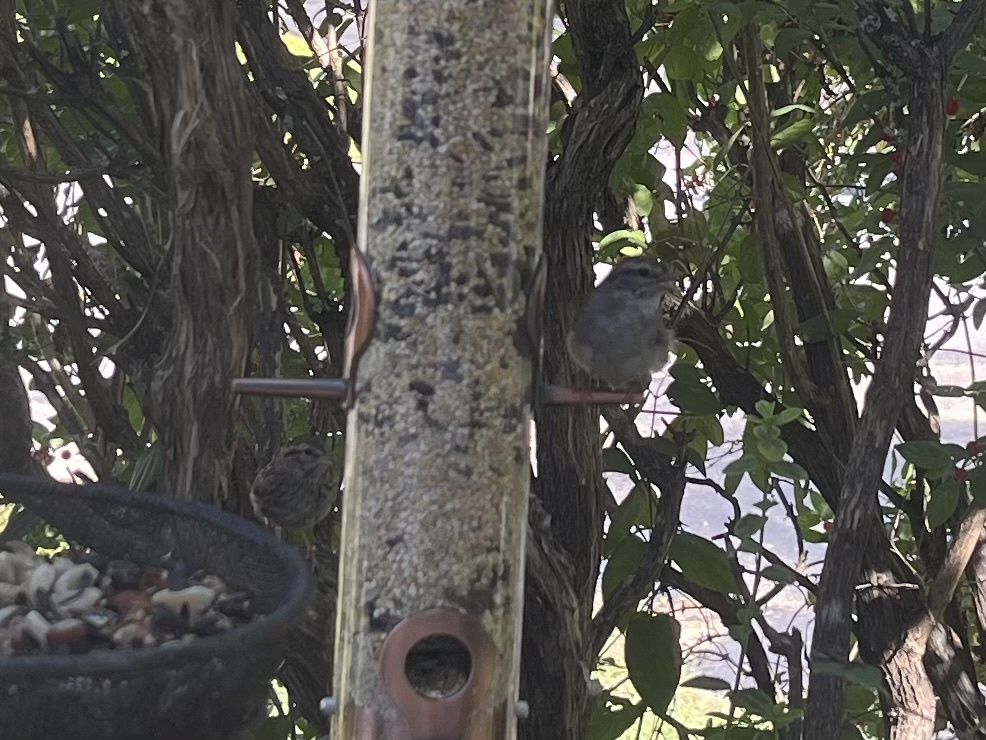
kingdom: Animalia
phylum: Chordata
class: Aves
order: Passeriformes
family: Passerellidae
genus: Spizella
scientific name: Spizella passerina
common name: Chipping sparrow
